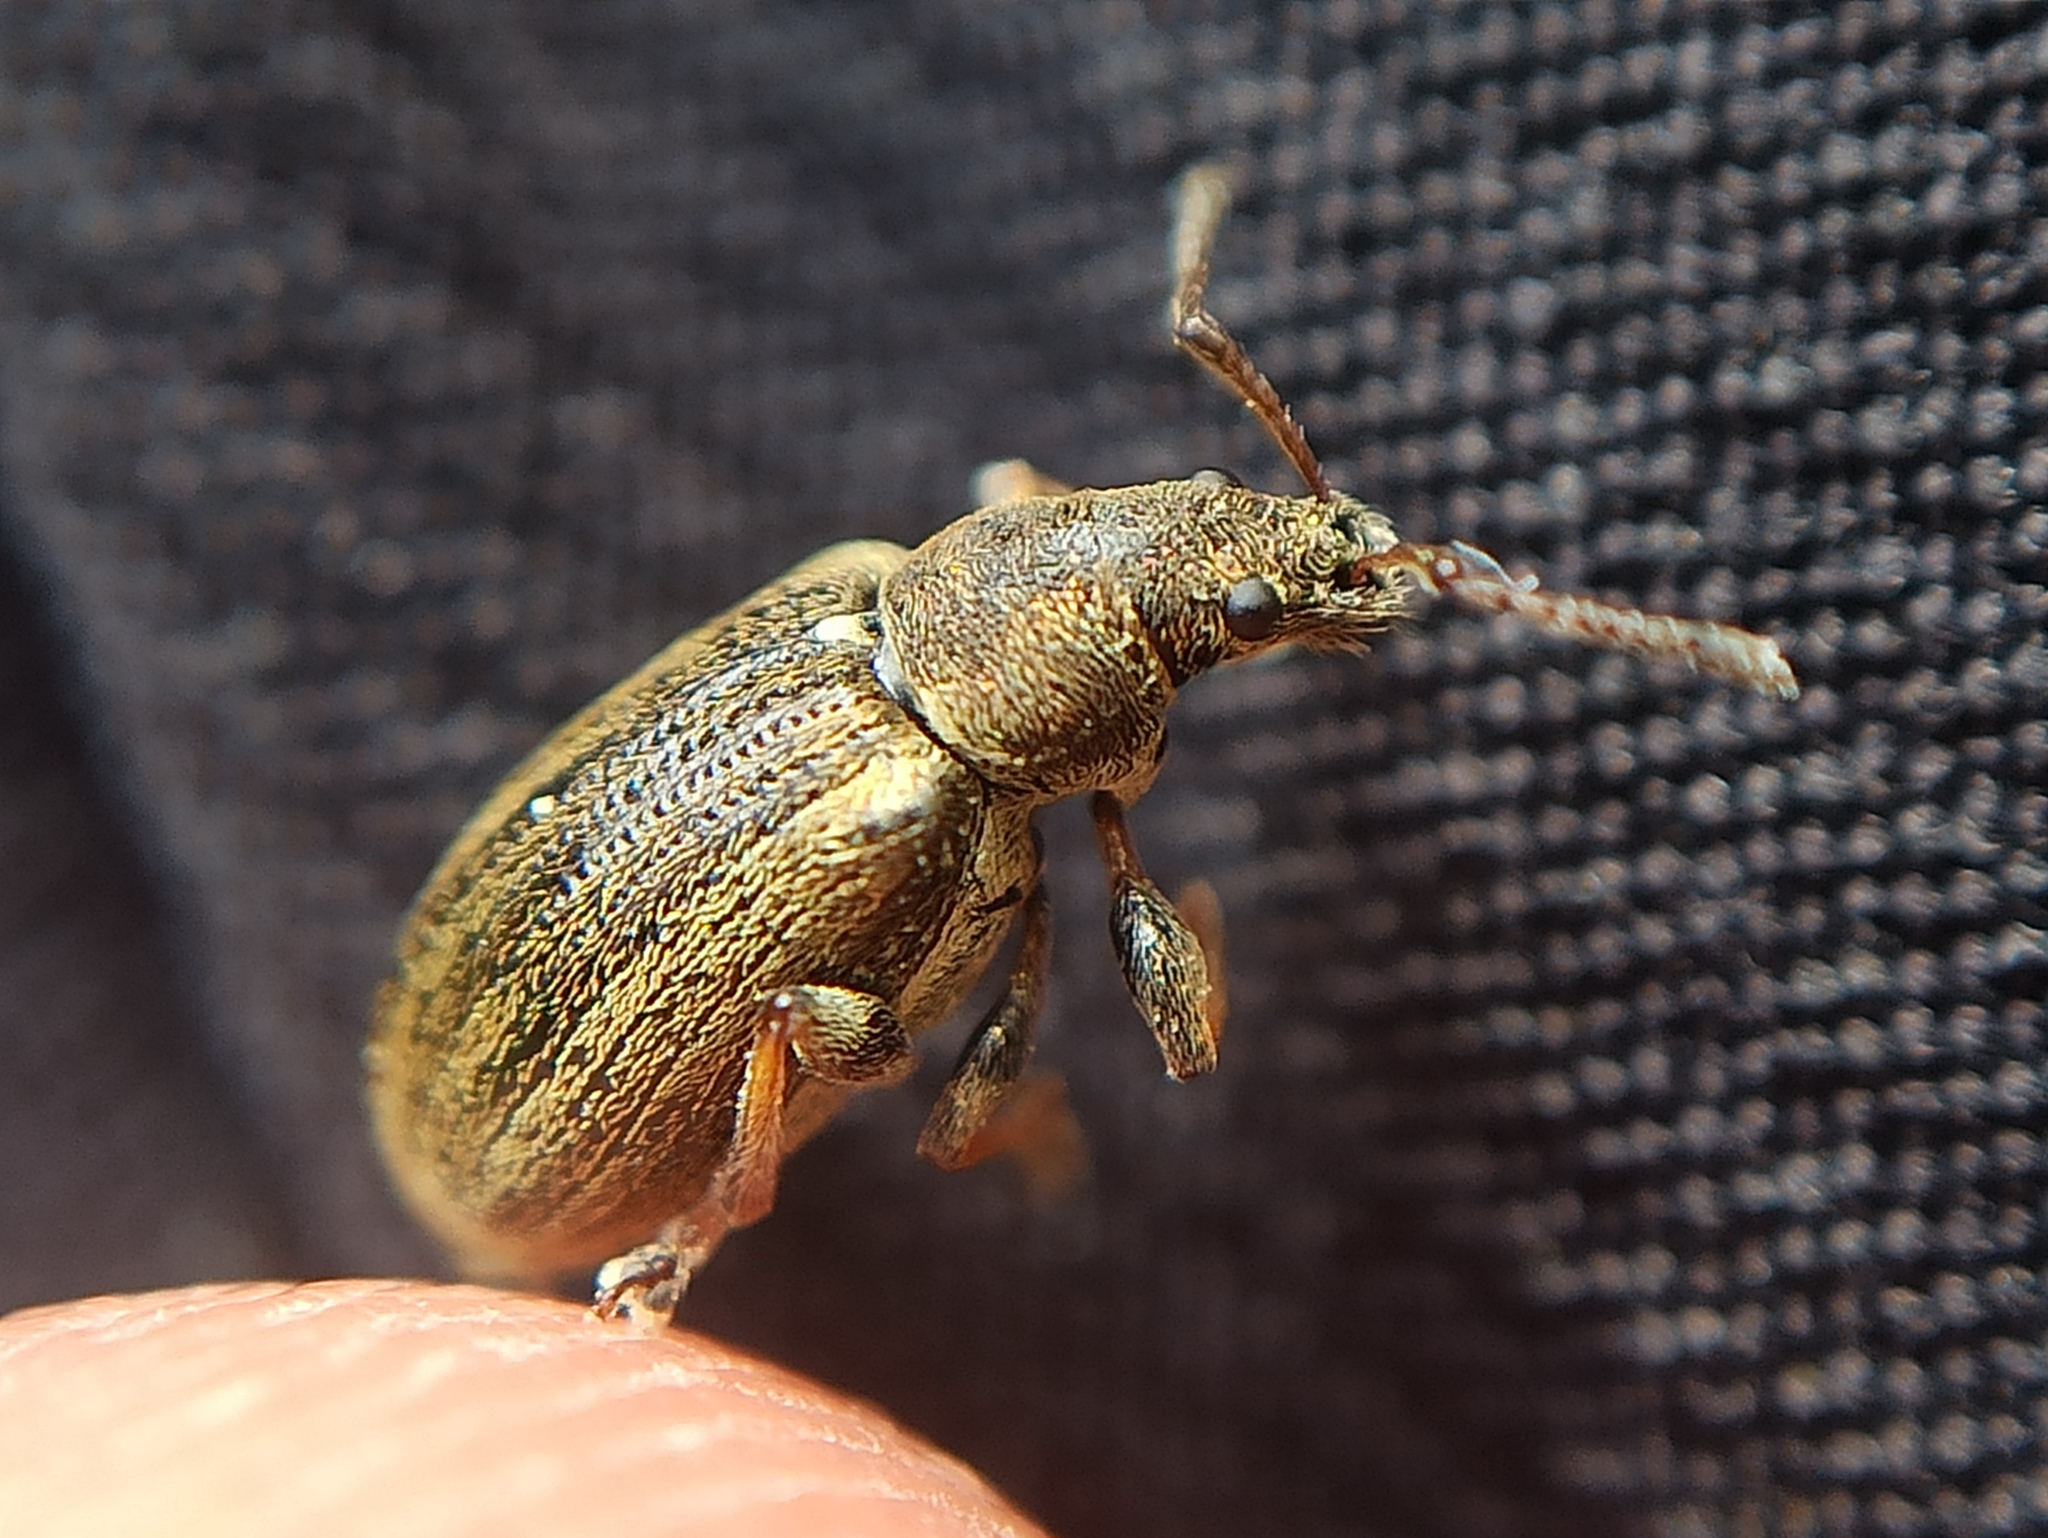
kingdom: Animalia
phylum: Arthropoda
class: Insecta
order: Coleoptera
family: Curculionidae
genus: Phyllobius
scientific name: Phyllobius pyri
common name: Common leaf weevil
